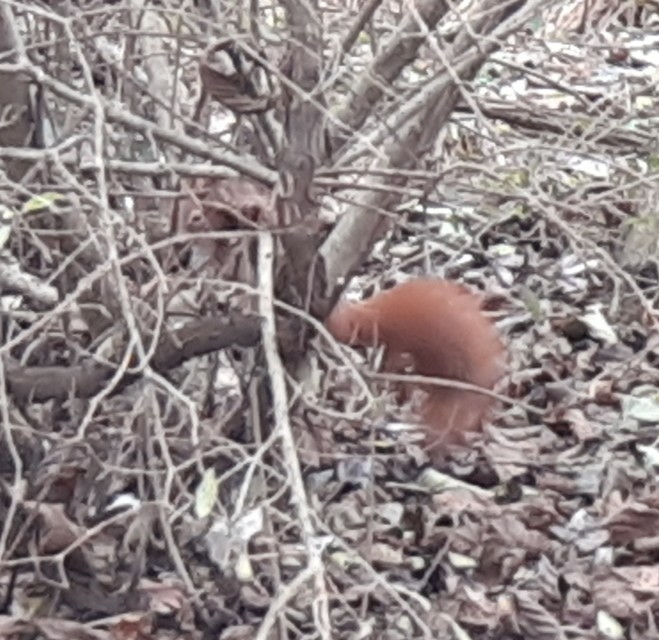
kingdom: Animalia
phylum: Chordata
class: Mammalia
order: Rodentia
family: Sciuridae
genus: Sciurus
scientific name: Sciurus vulgaris
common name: Eurasian red squirrel
